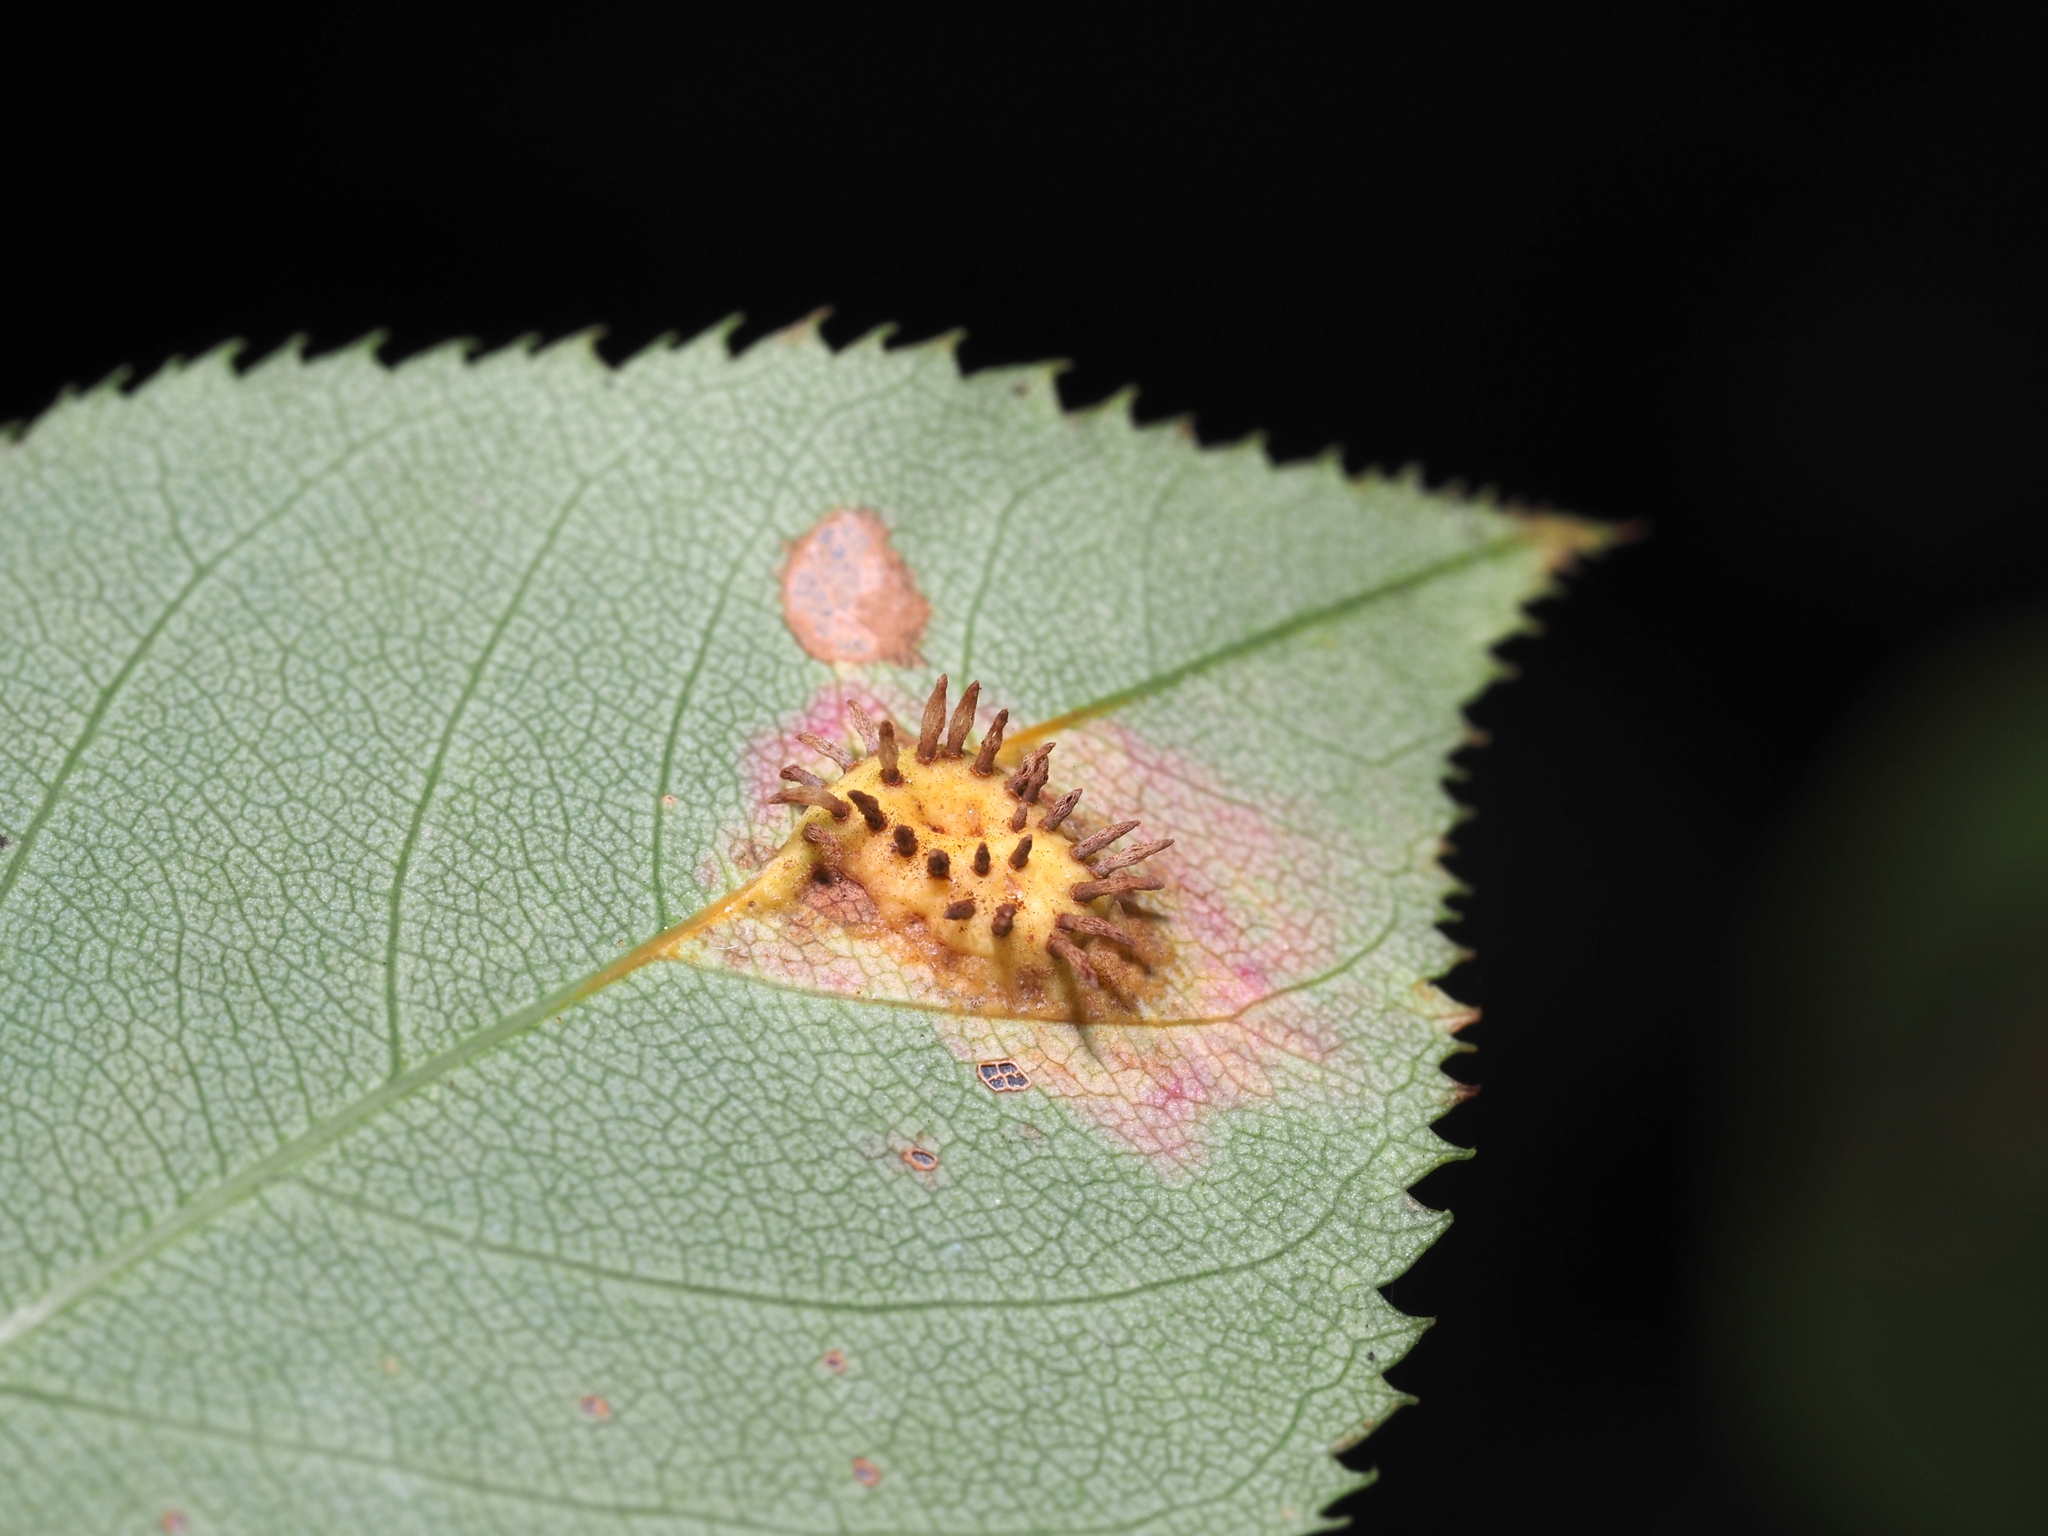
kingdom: Fungi
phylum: Basidiomycota
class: Pucciniomycetes
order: Pucciniales
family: Gymnosporangiaceae
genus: Gymnosporangium
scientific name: Gymnosporangium sabinae
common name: Pear trellis rust fungus
